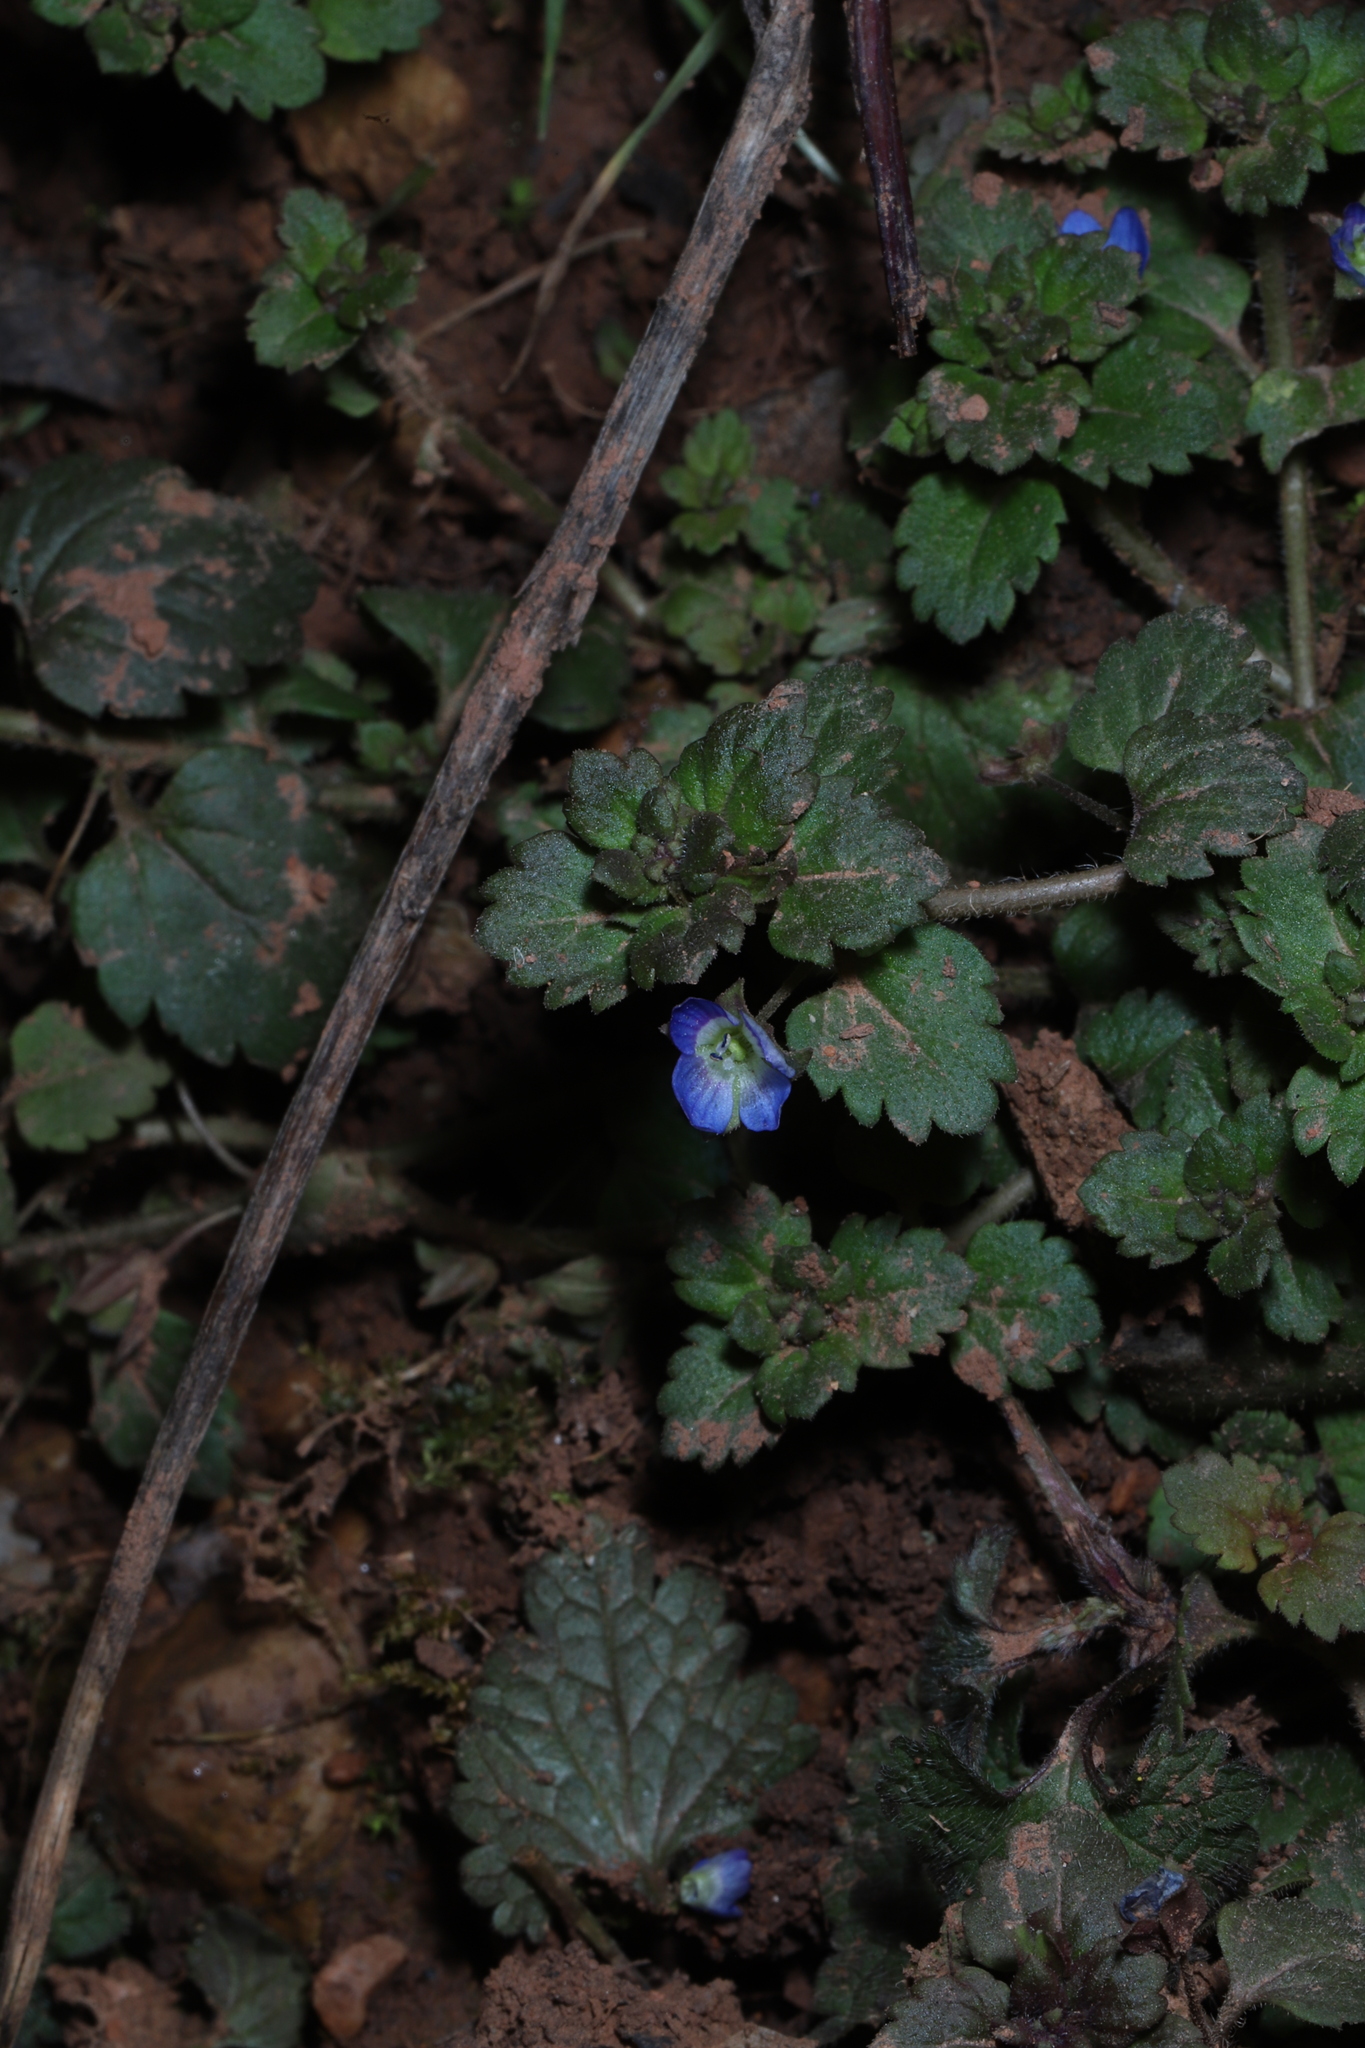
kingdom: Plantae
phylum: Tracheophyta
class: Magnoliopsida
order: Lamiales
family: Plantaginaceae
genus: Veronica
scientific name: Veronica persica
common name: Common field-speedwell
